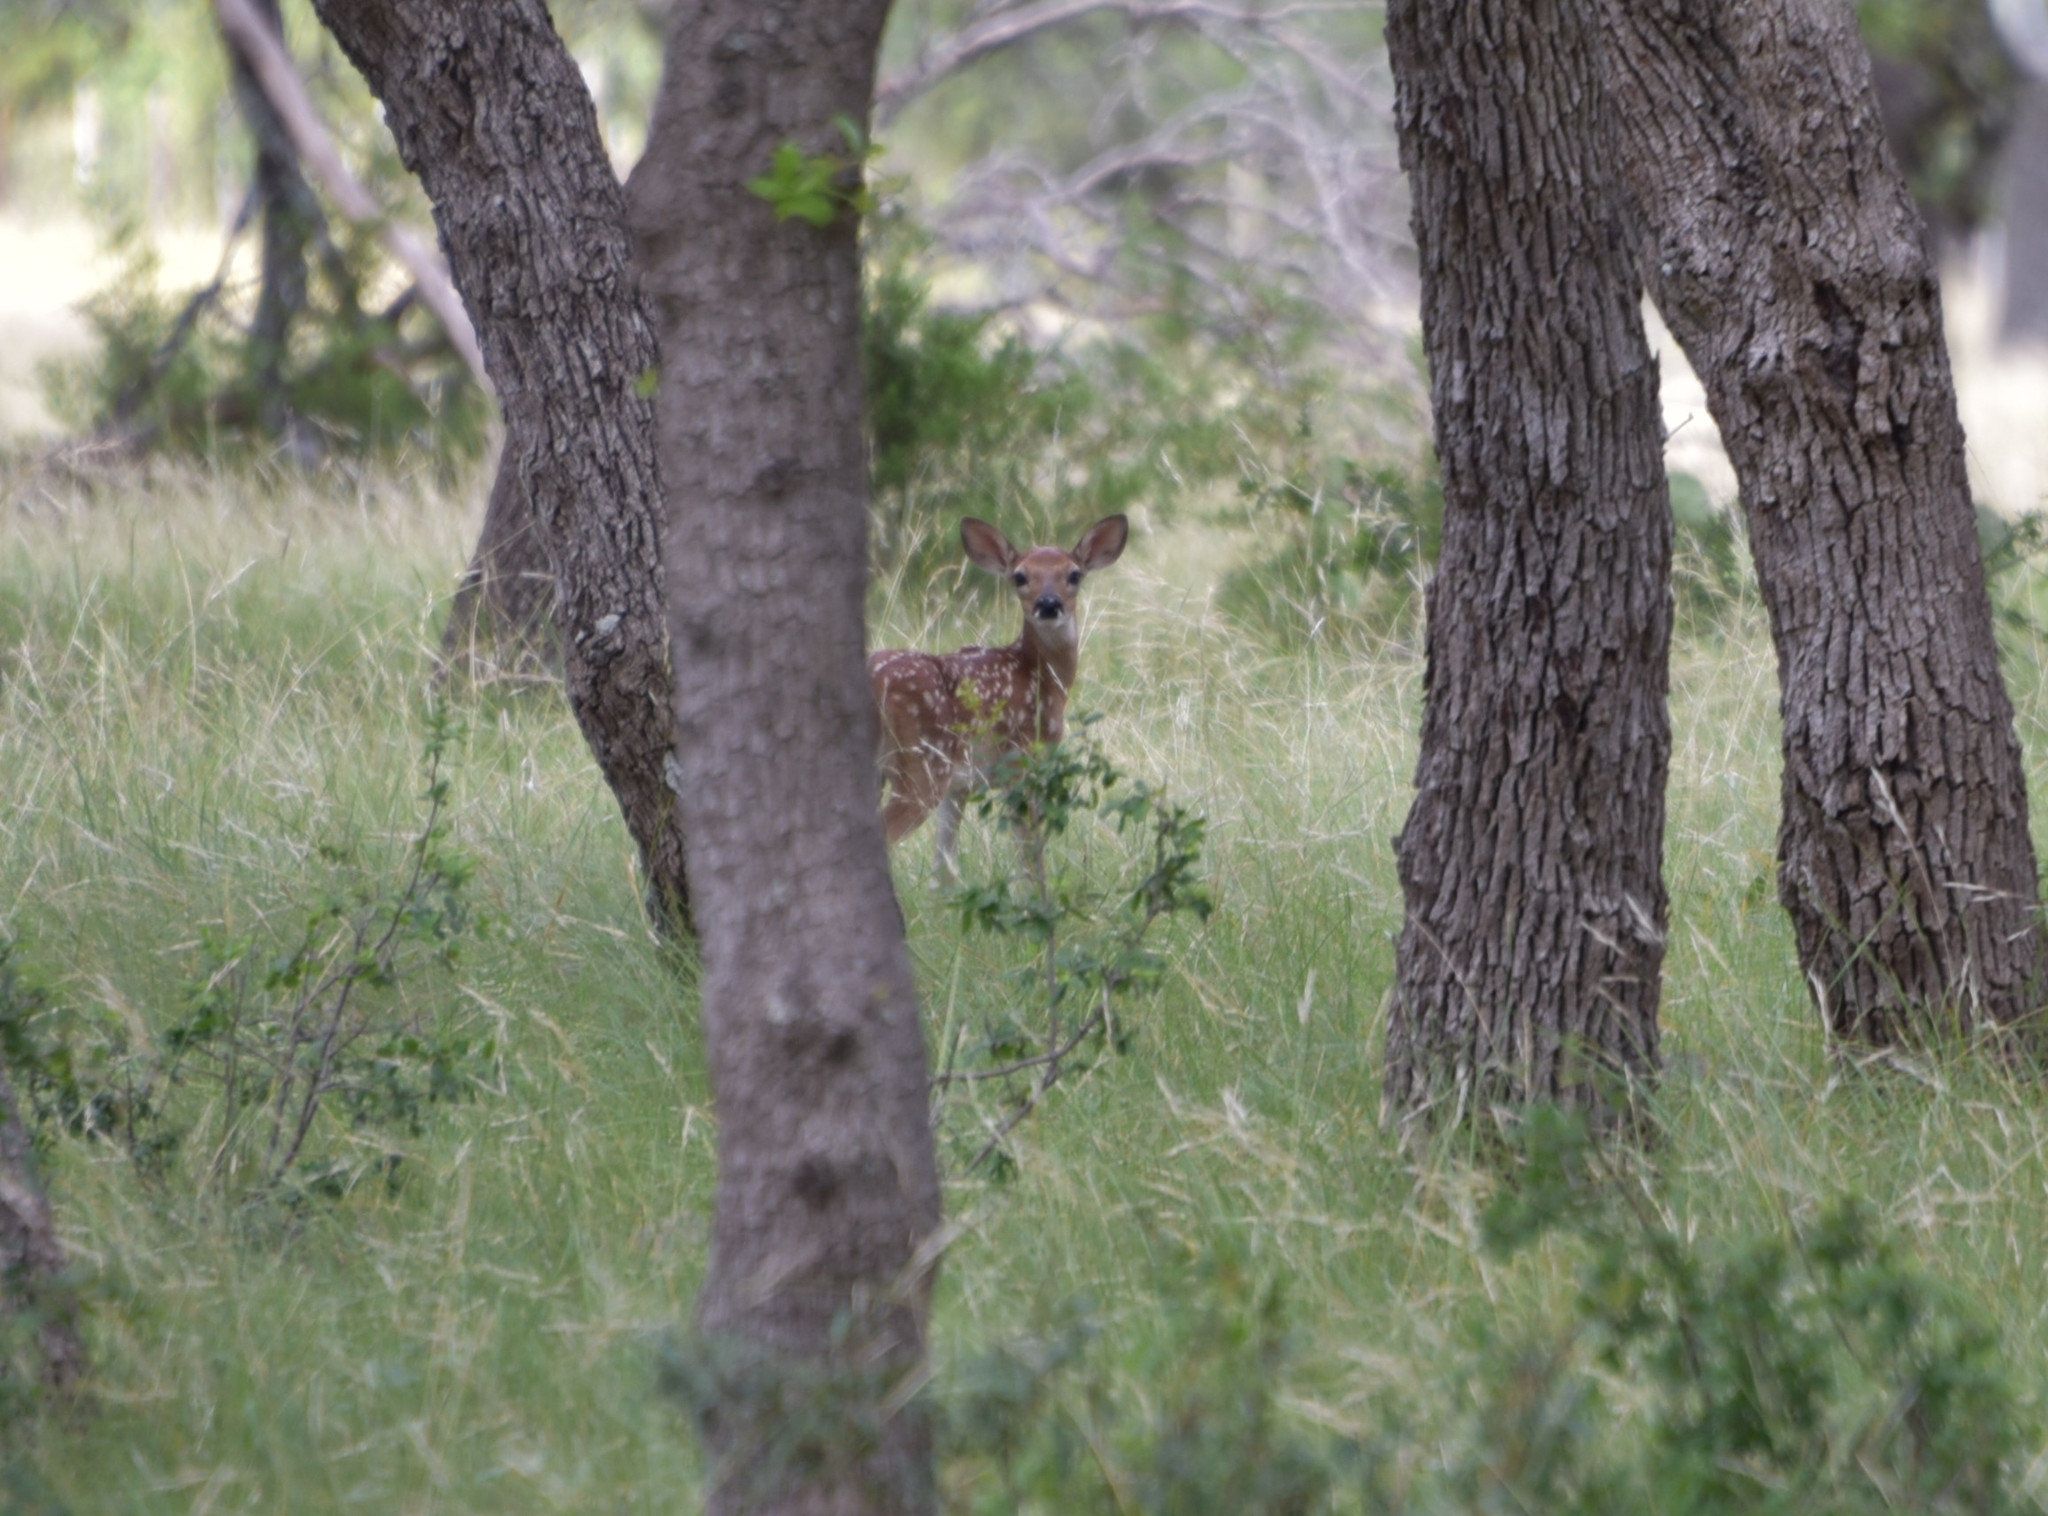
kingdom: Animalia
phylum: Chordata
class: Mammalia
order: Artiodactyla
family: Cervidae
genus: Odocoileus
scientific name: Odocoileus virginianus
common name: White-tailed deer
